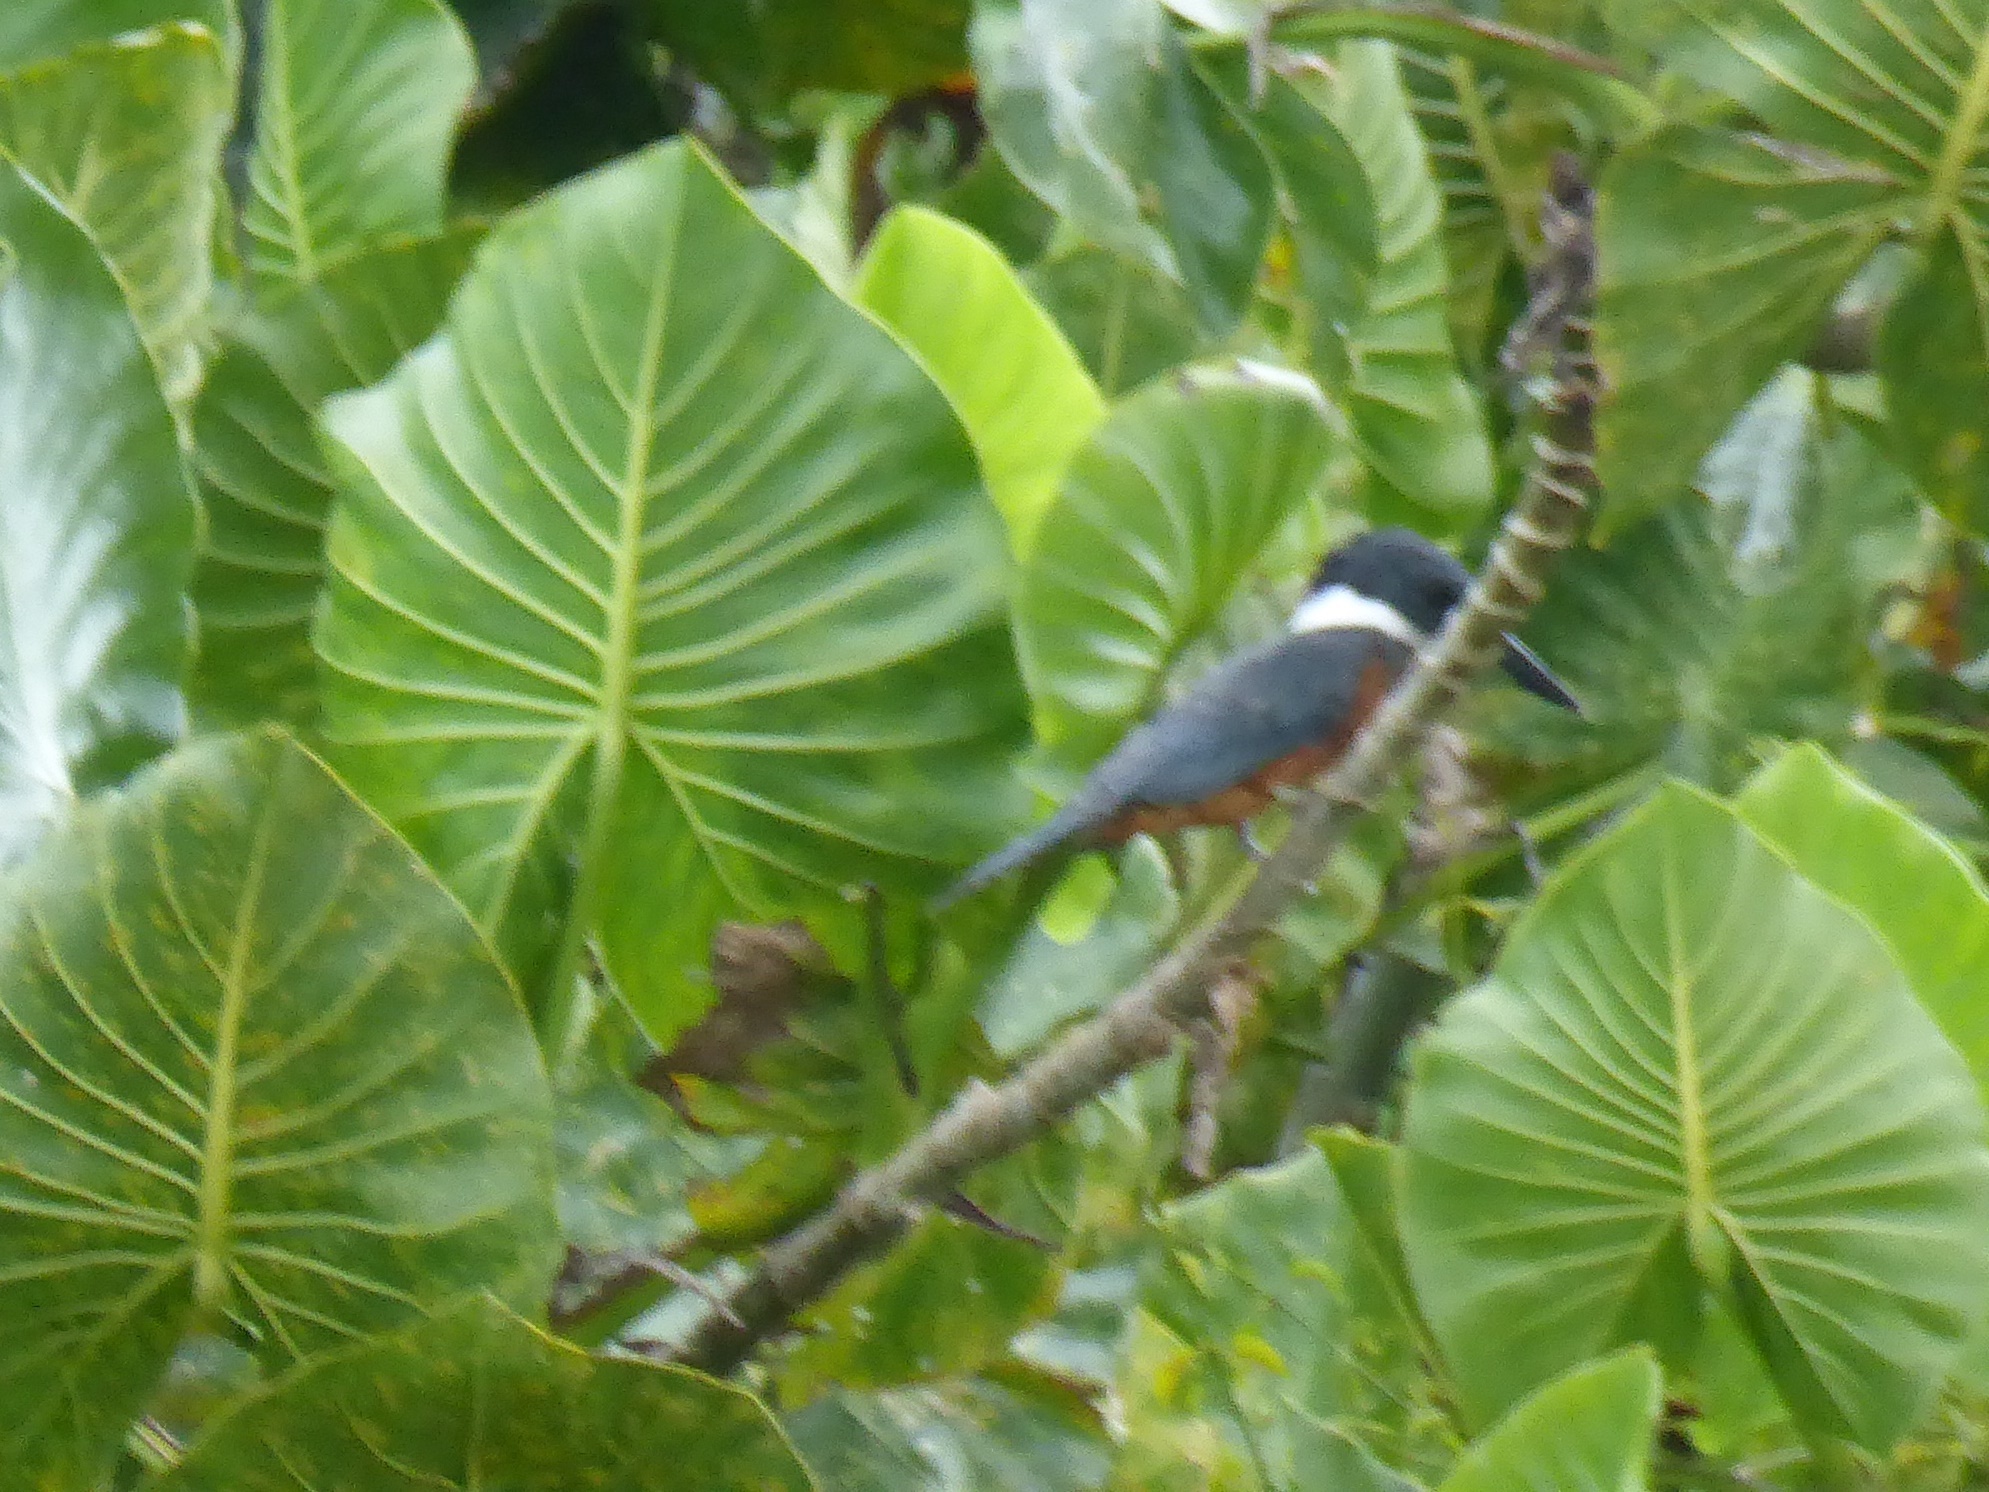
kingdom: Animalia
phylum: Chordata
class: Aves
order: Coraciiformes
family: Alcedinidae
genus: Megaceryle
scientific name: Megaceryle torquata
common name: Ringed kingfisher
